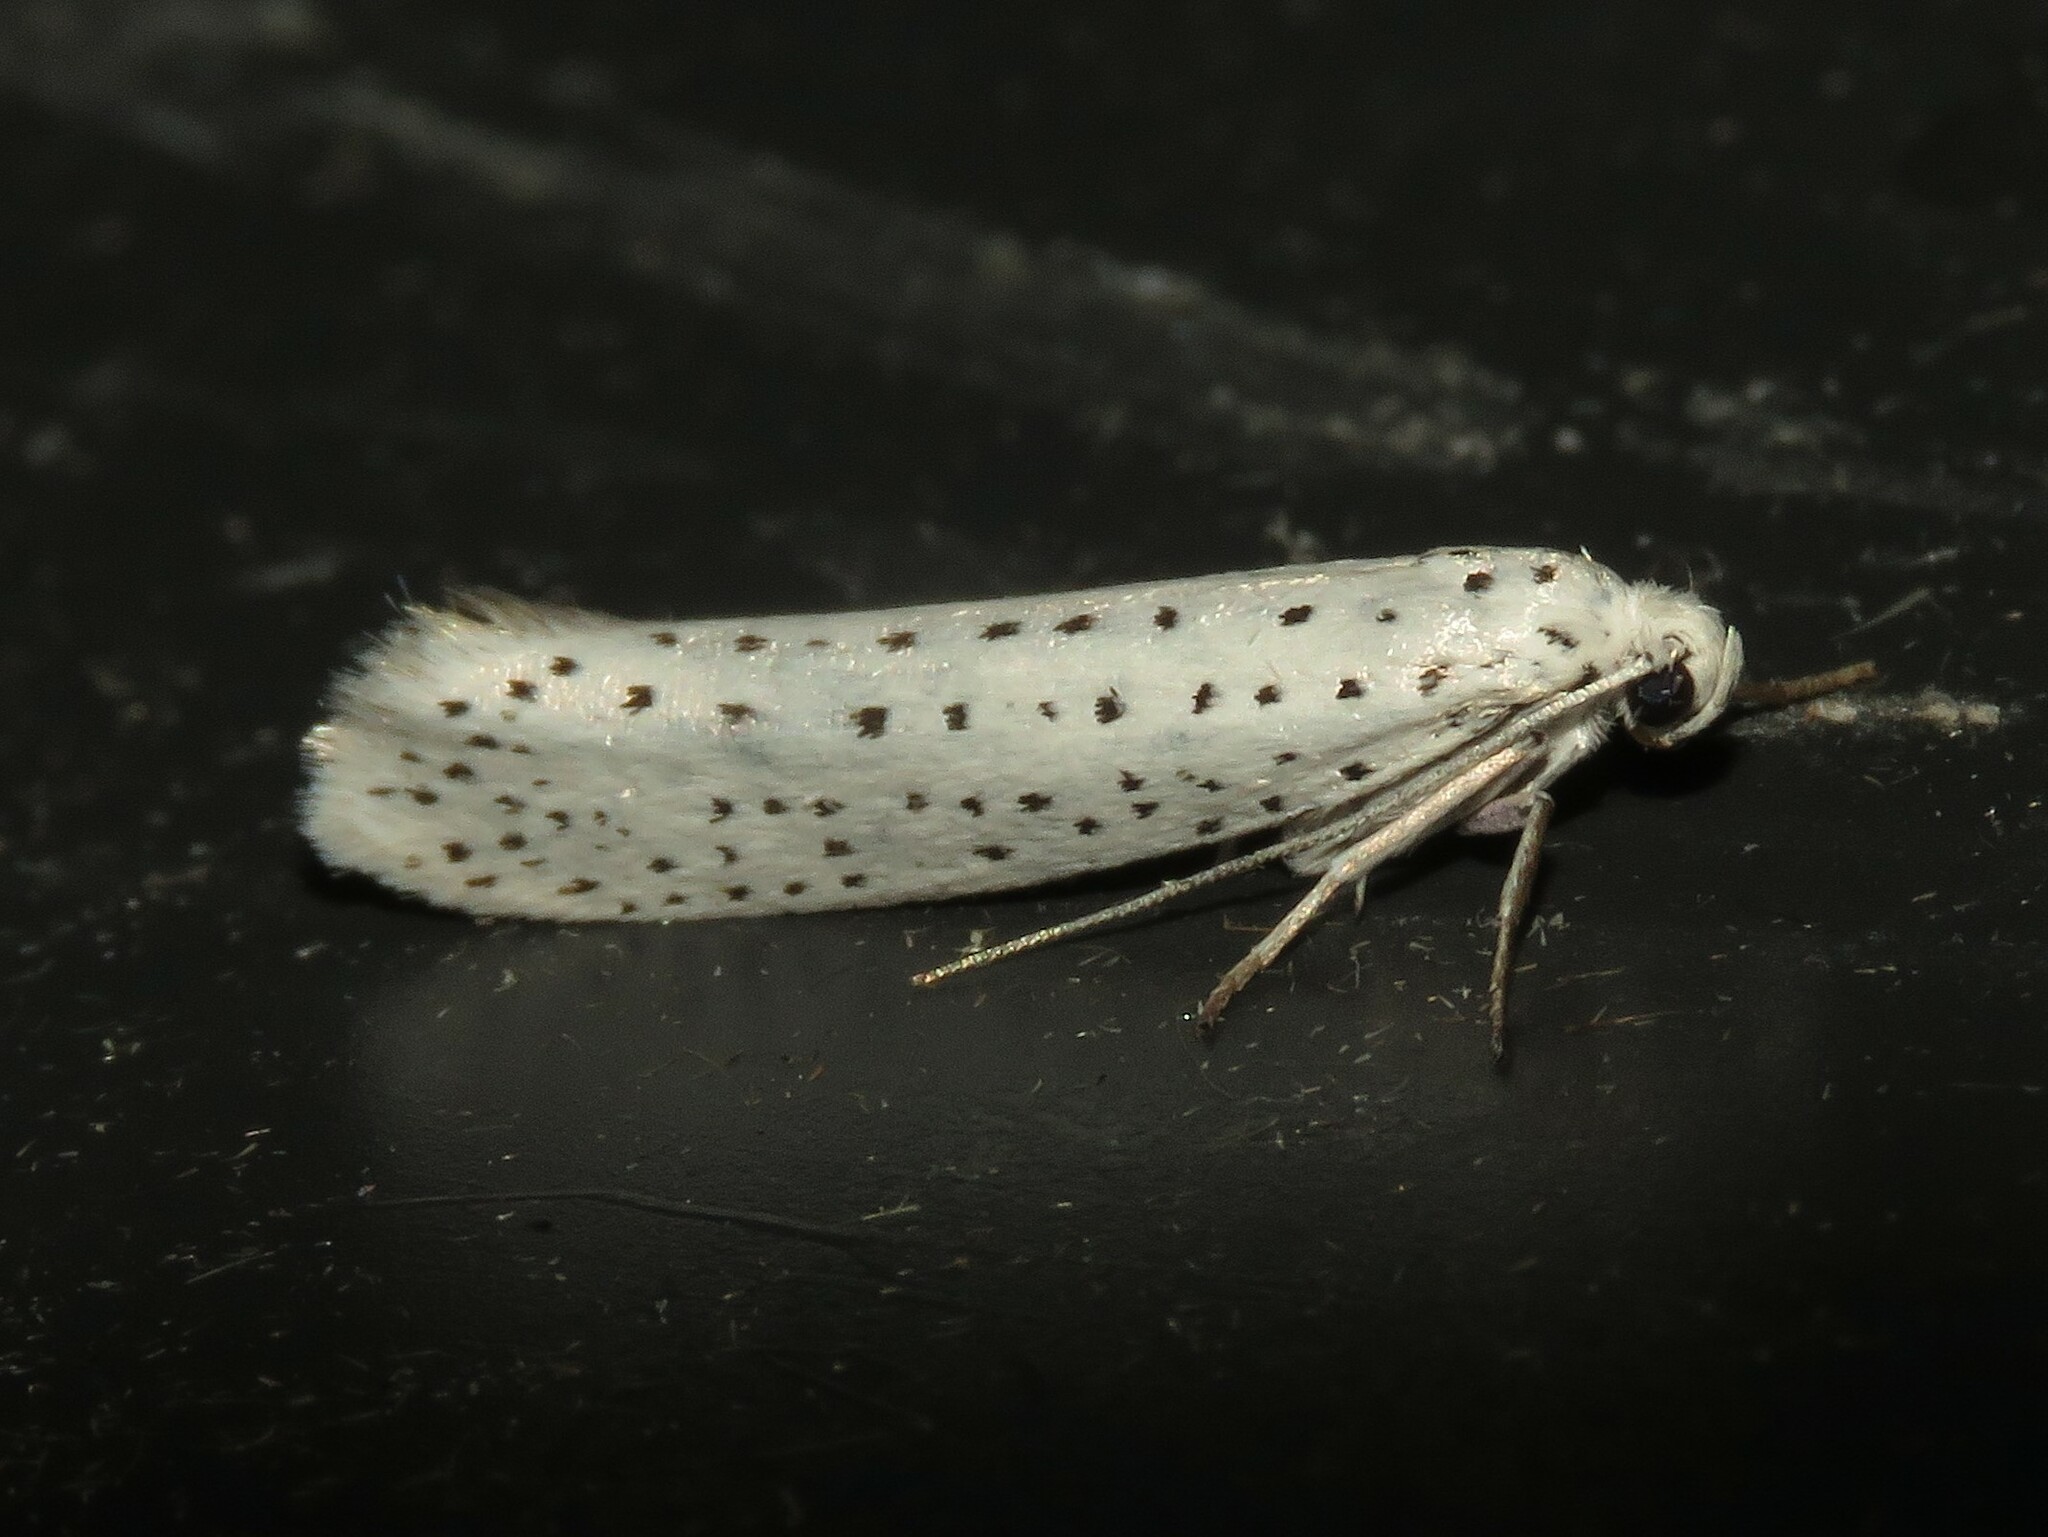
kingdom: Animalia
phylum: Arthropoda
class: Insecta
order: Lepidoptera
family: Yponomeutidae
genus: Yponomeuta
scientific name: Yponomeuta multipunctella
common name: American ermine moth
